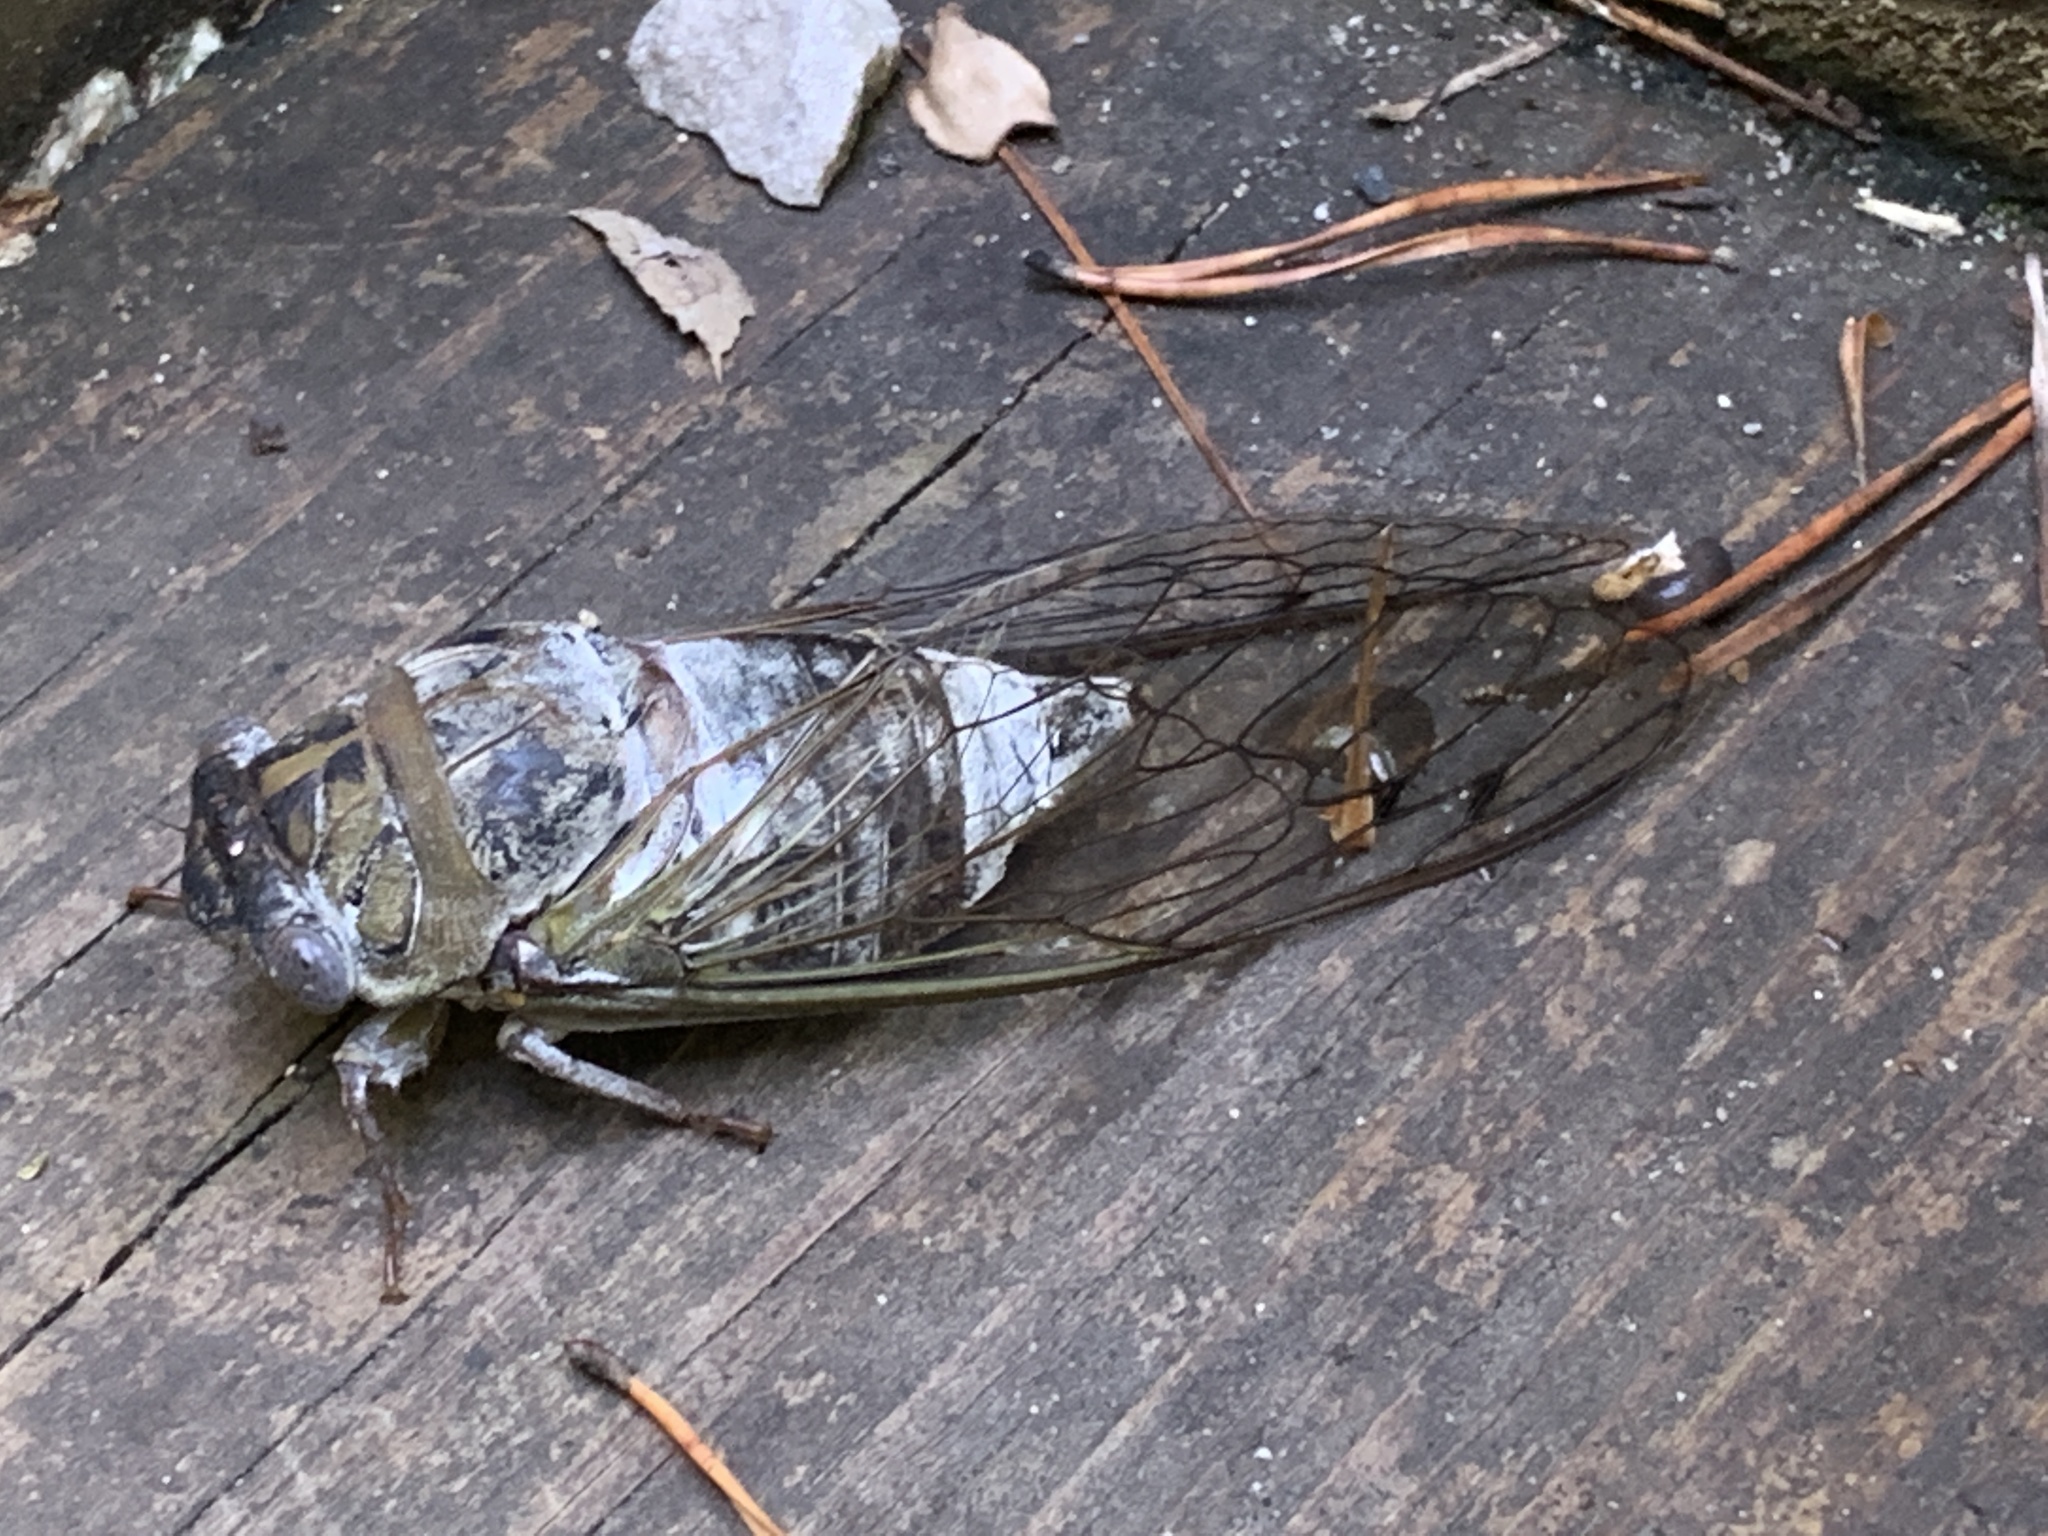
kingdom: Animalia
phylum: Arthropoda
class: Insecta
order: Hemiptera
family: Cicadidae
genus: Diceroprocta
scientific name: Diceroprocta grossa
